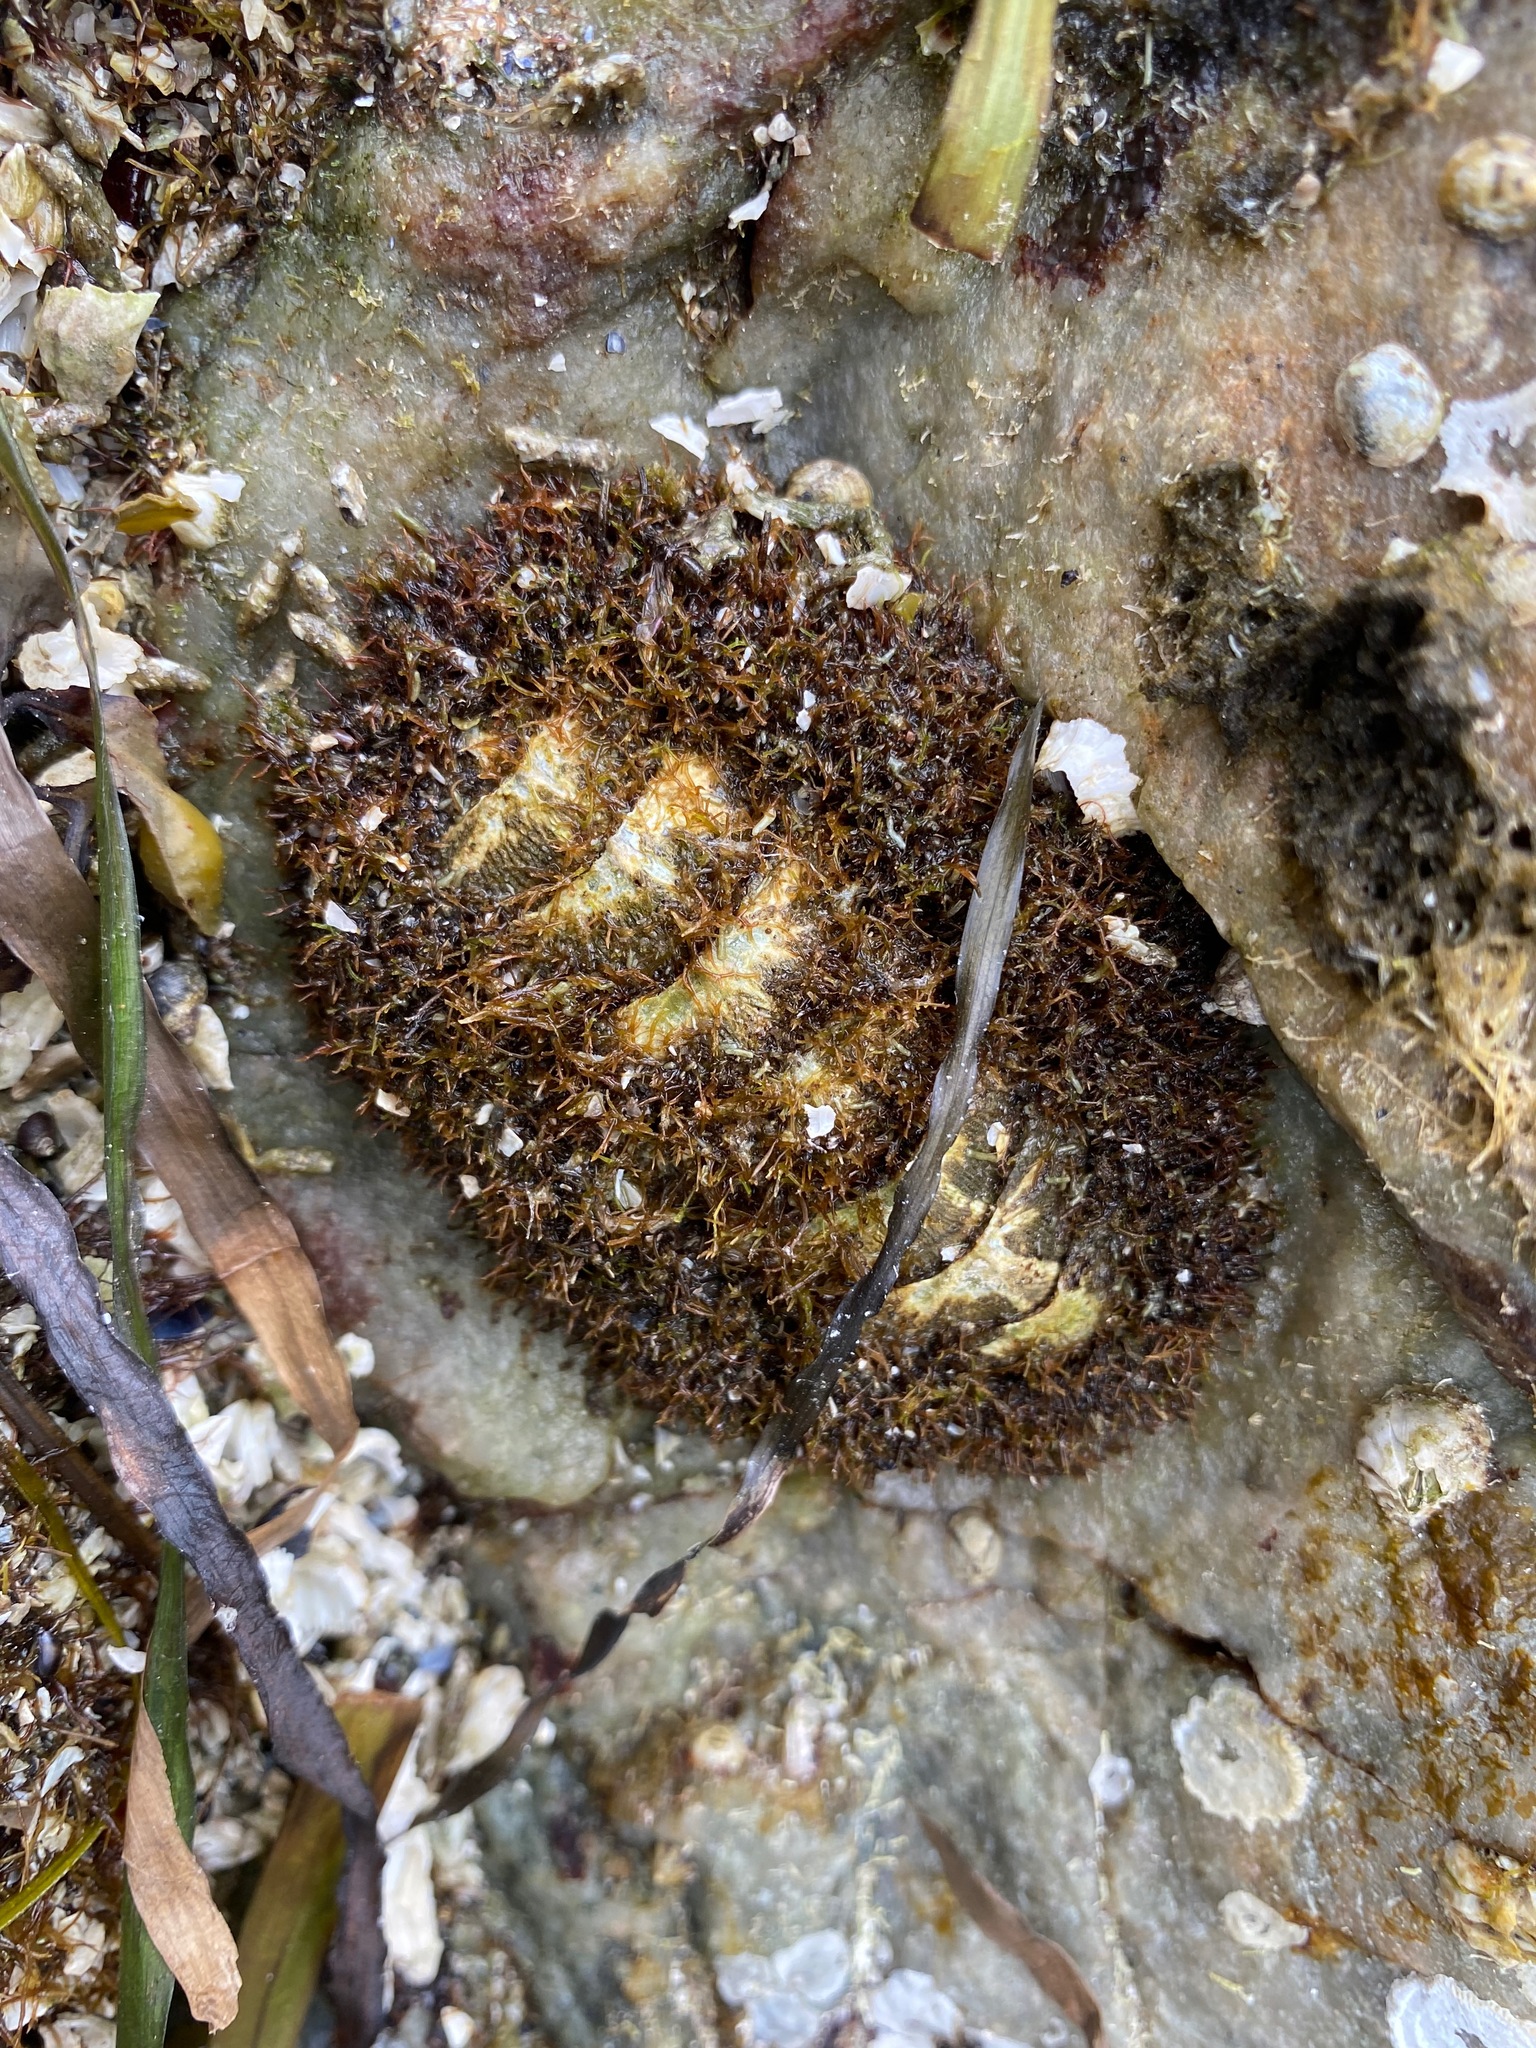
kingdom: Animalia
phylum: Mollusca
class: Polyplacophora
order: Chitonida
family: Mopaliidae
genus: Mopalia
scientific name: Mopalia muscosa
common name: Mossy chiton
